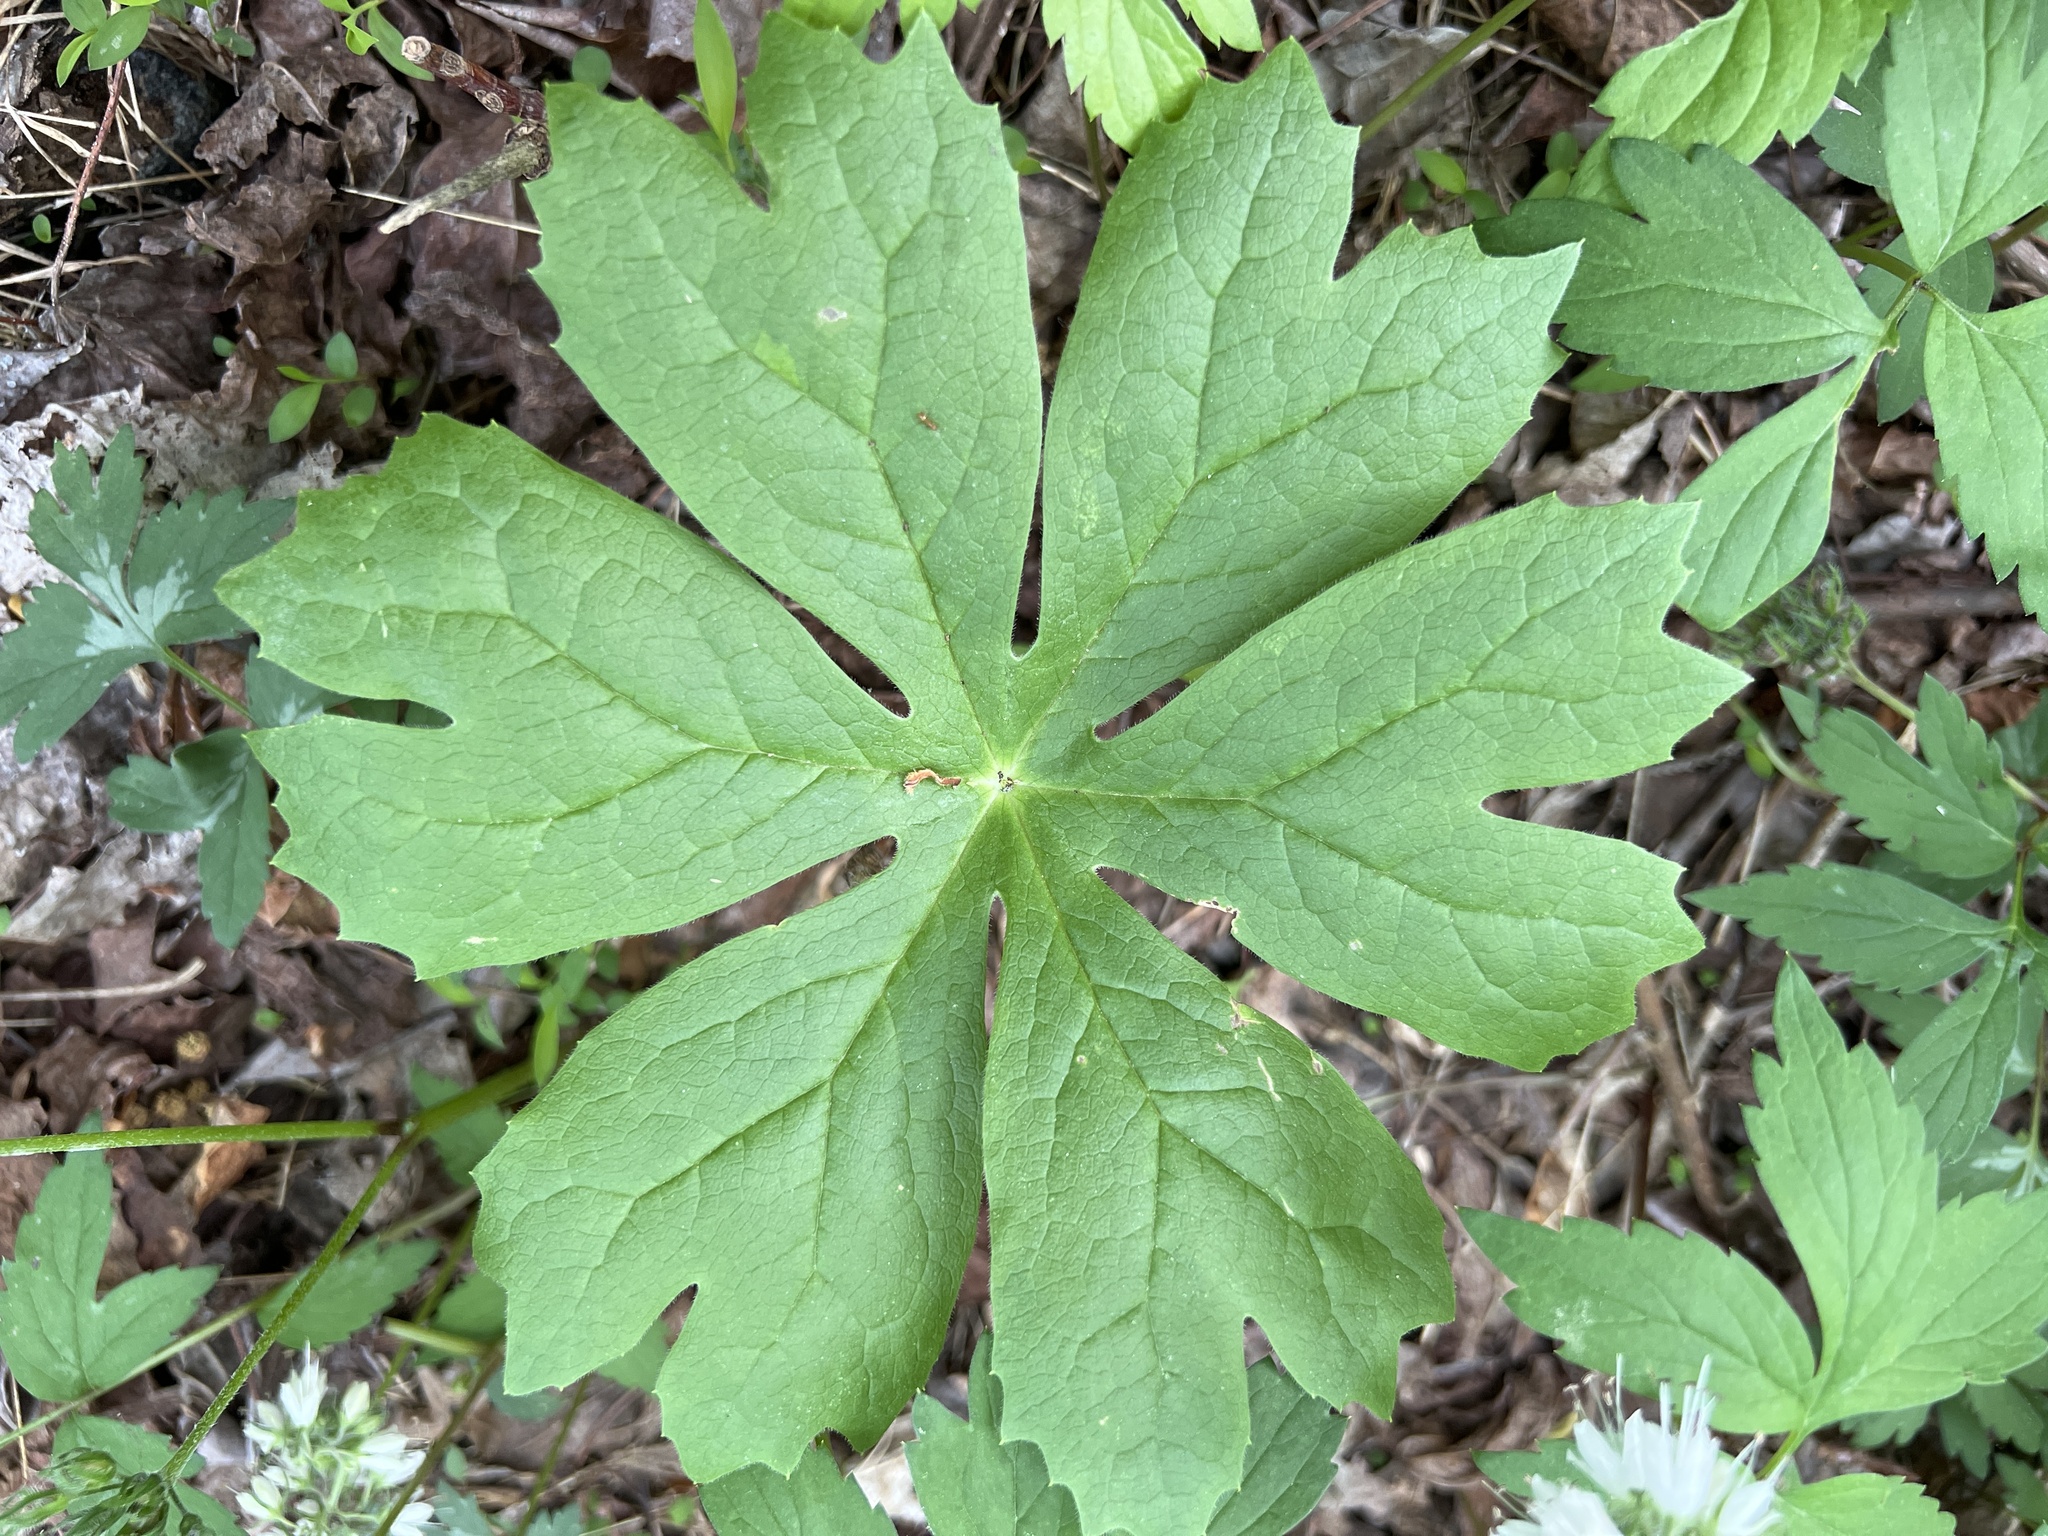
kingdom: Plantae
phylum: Tracheophyta
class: Magnoliopsida
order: Ranunculales
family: Berberidaceae
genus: Podophyllum
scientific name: Podophyllum peltatum
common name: Wild mandrake
